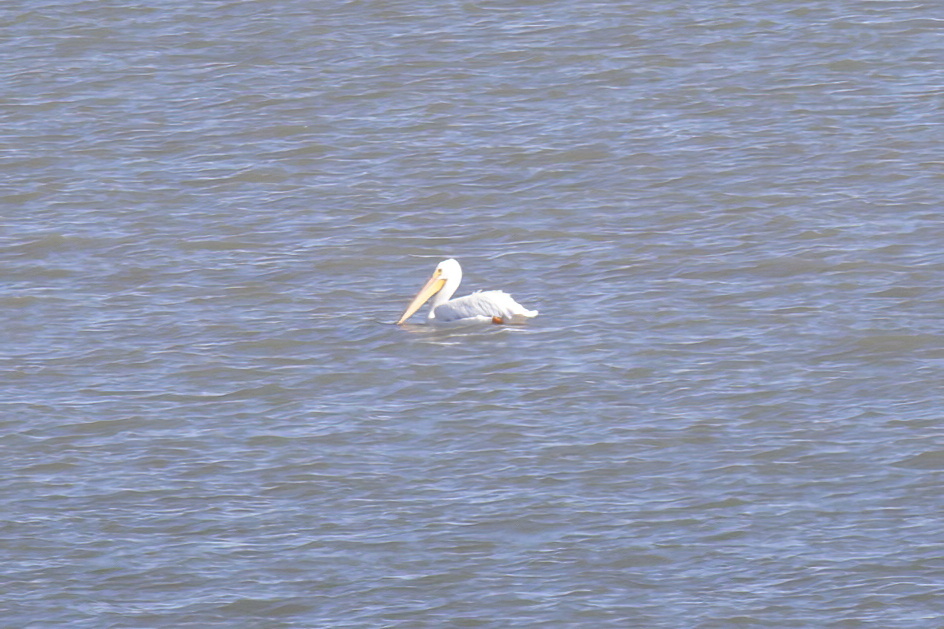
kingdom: Animalia
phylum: Chordata
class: Aves
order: Pelecaniformes
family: Pelecanidae
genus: Pelecanus
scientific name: Pelecanus erythrorhynchos
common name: American white pelican
